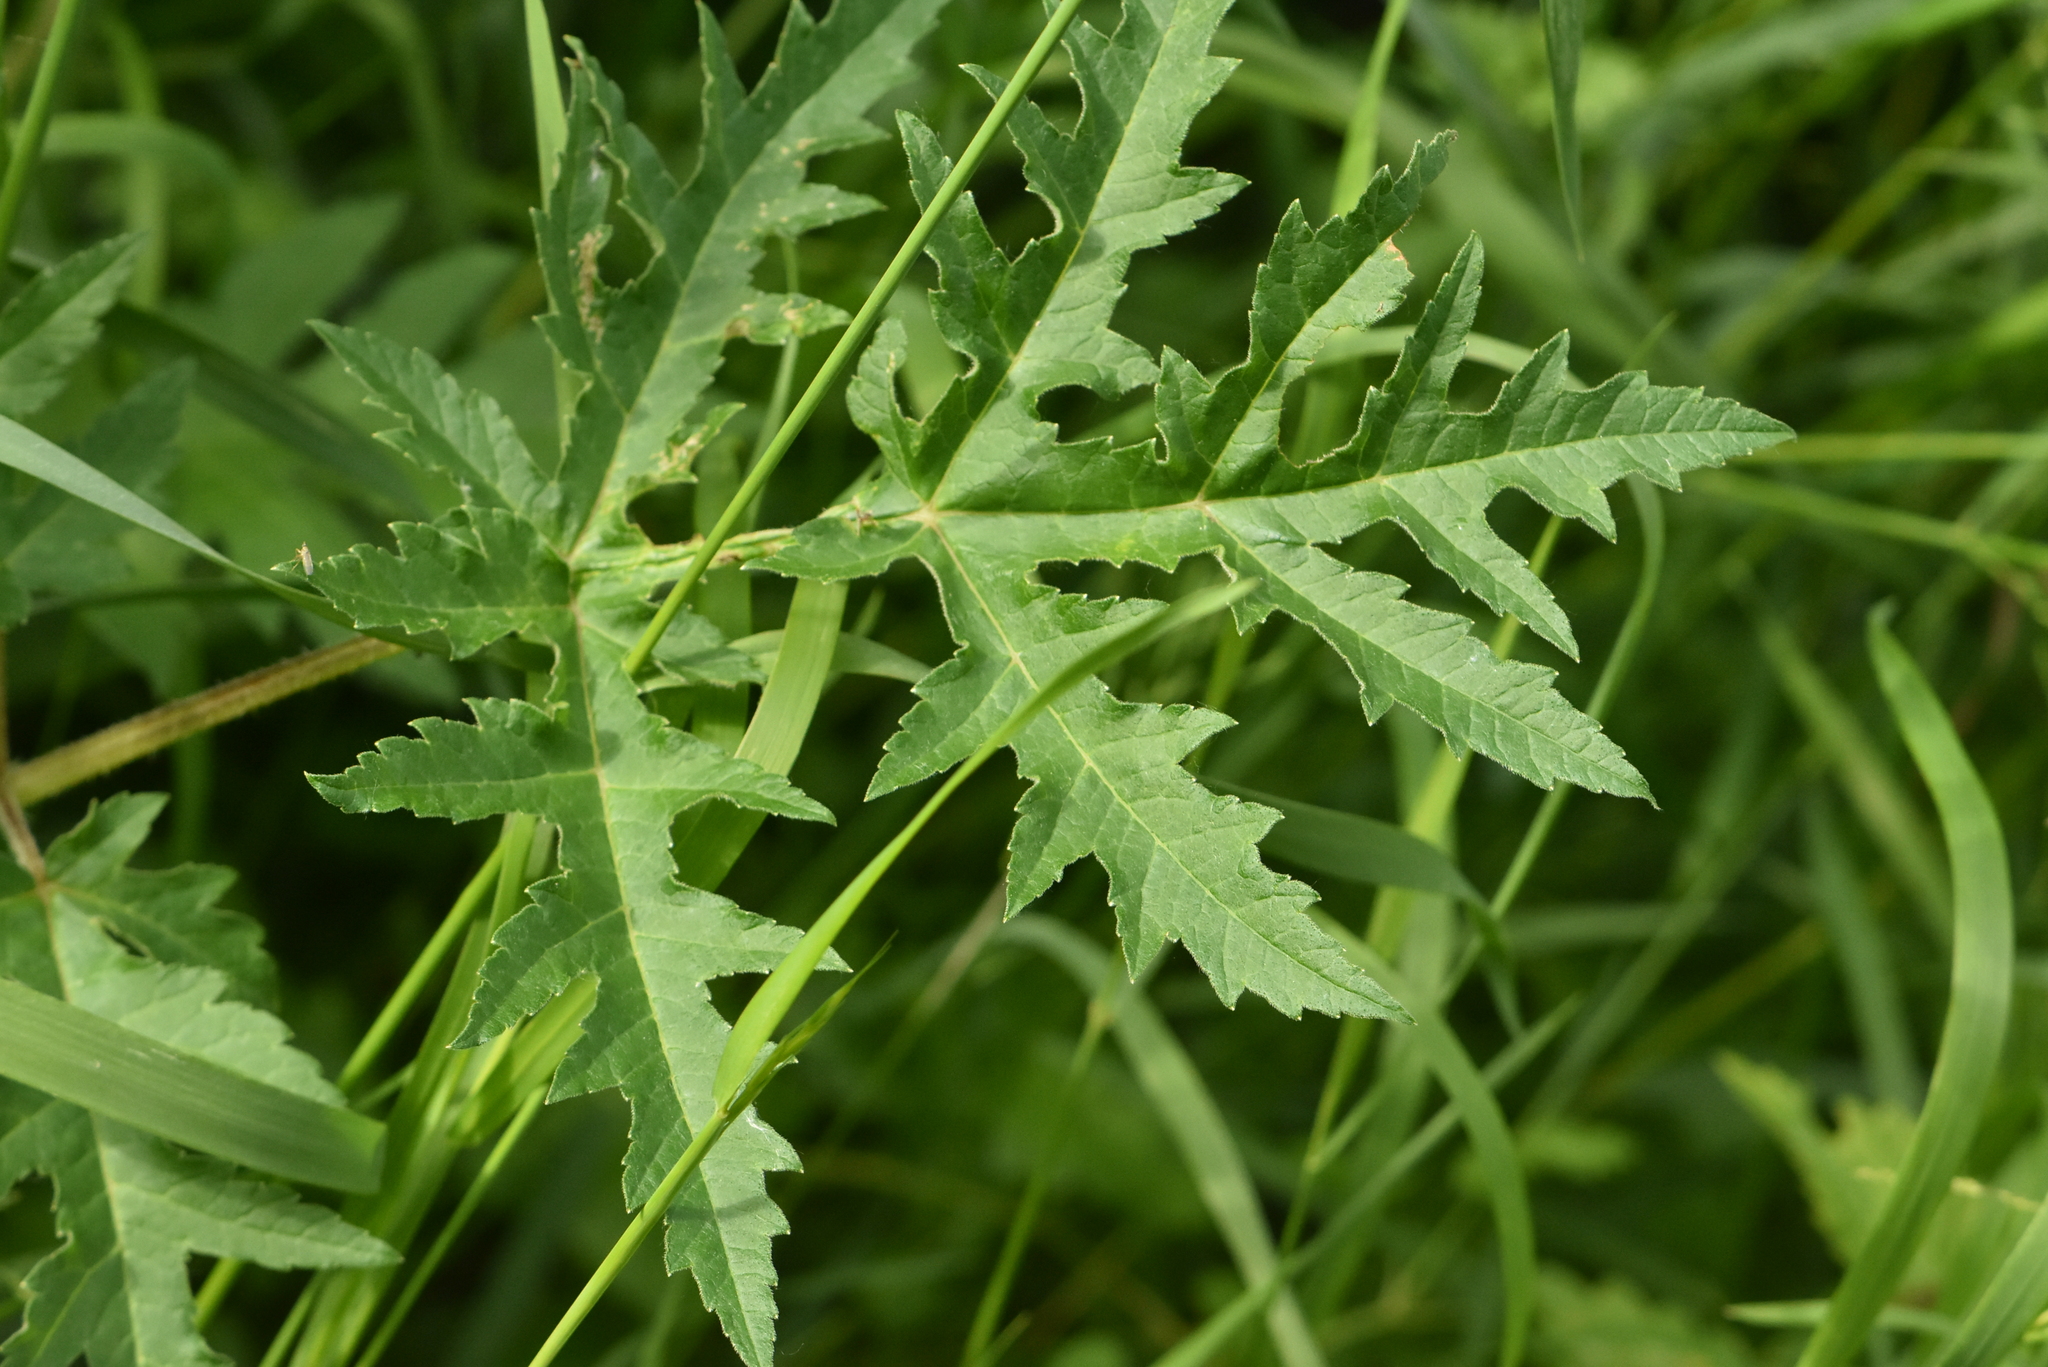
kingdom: Plantae
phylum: Tracheophyta
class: Magnoliopsida
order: Apiales
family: Apiaceae
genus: Heracleum
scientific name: Heracleum sphondylium
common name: Hogweed
